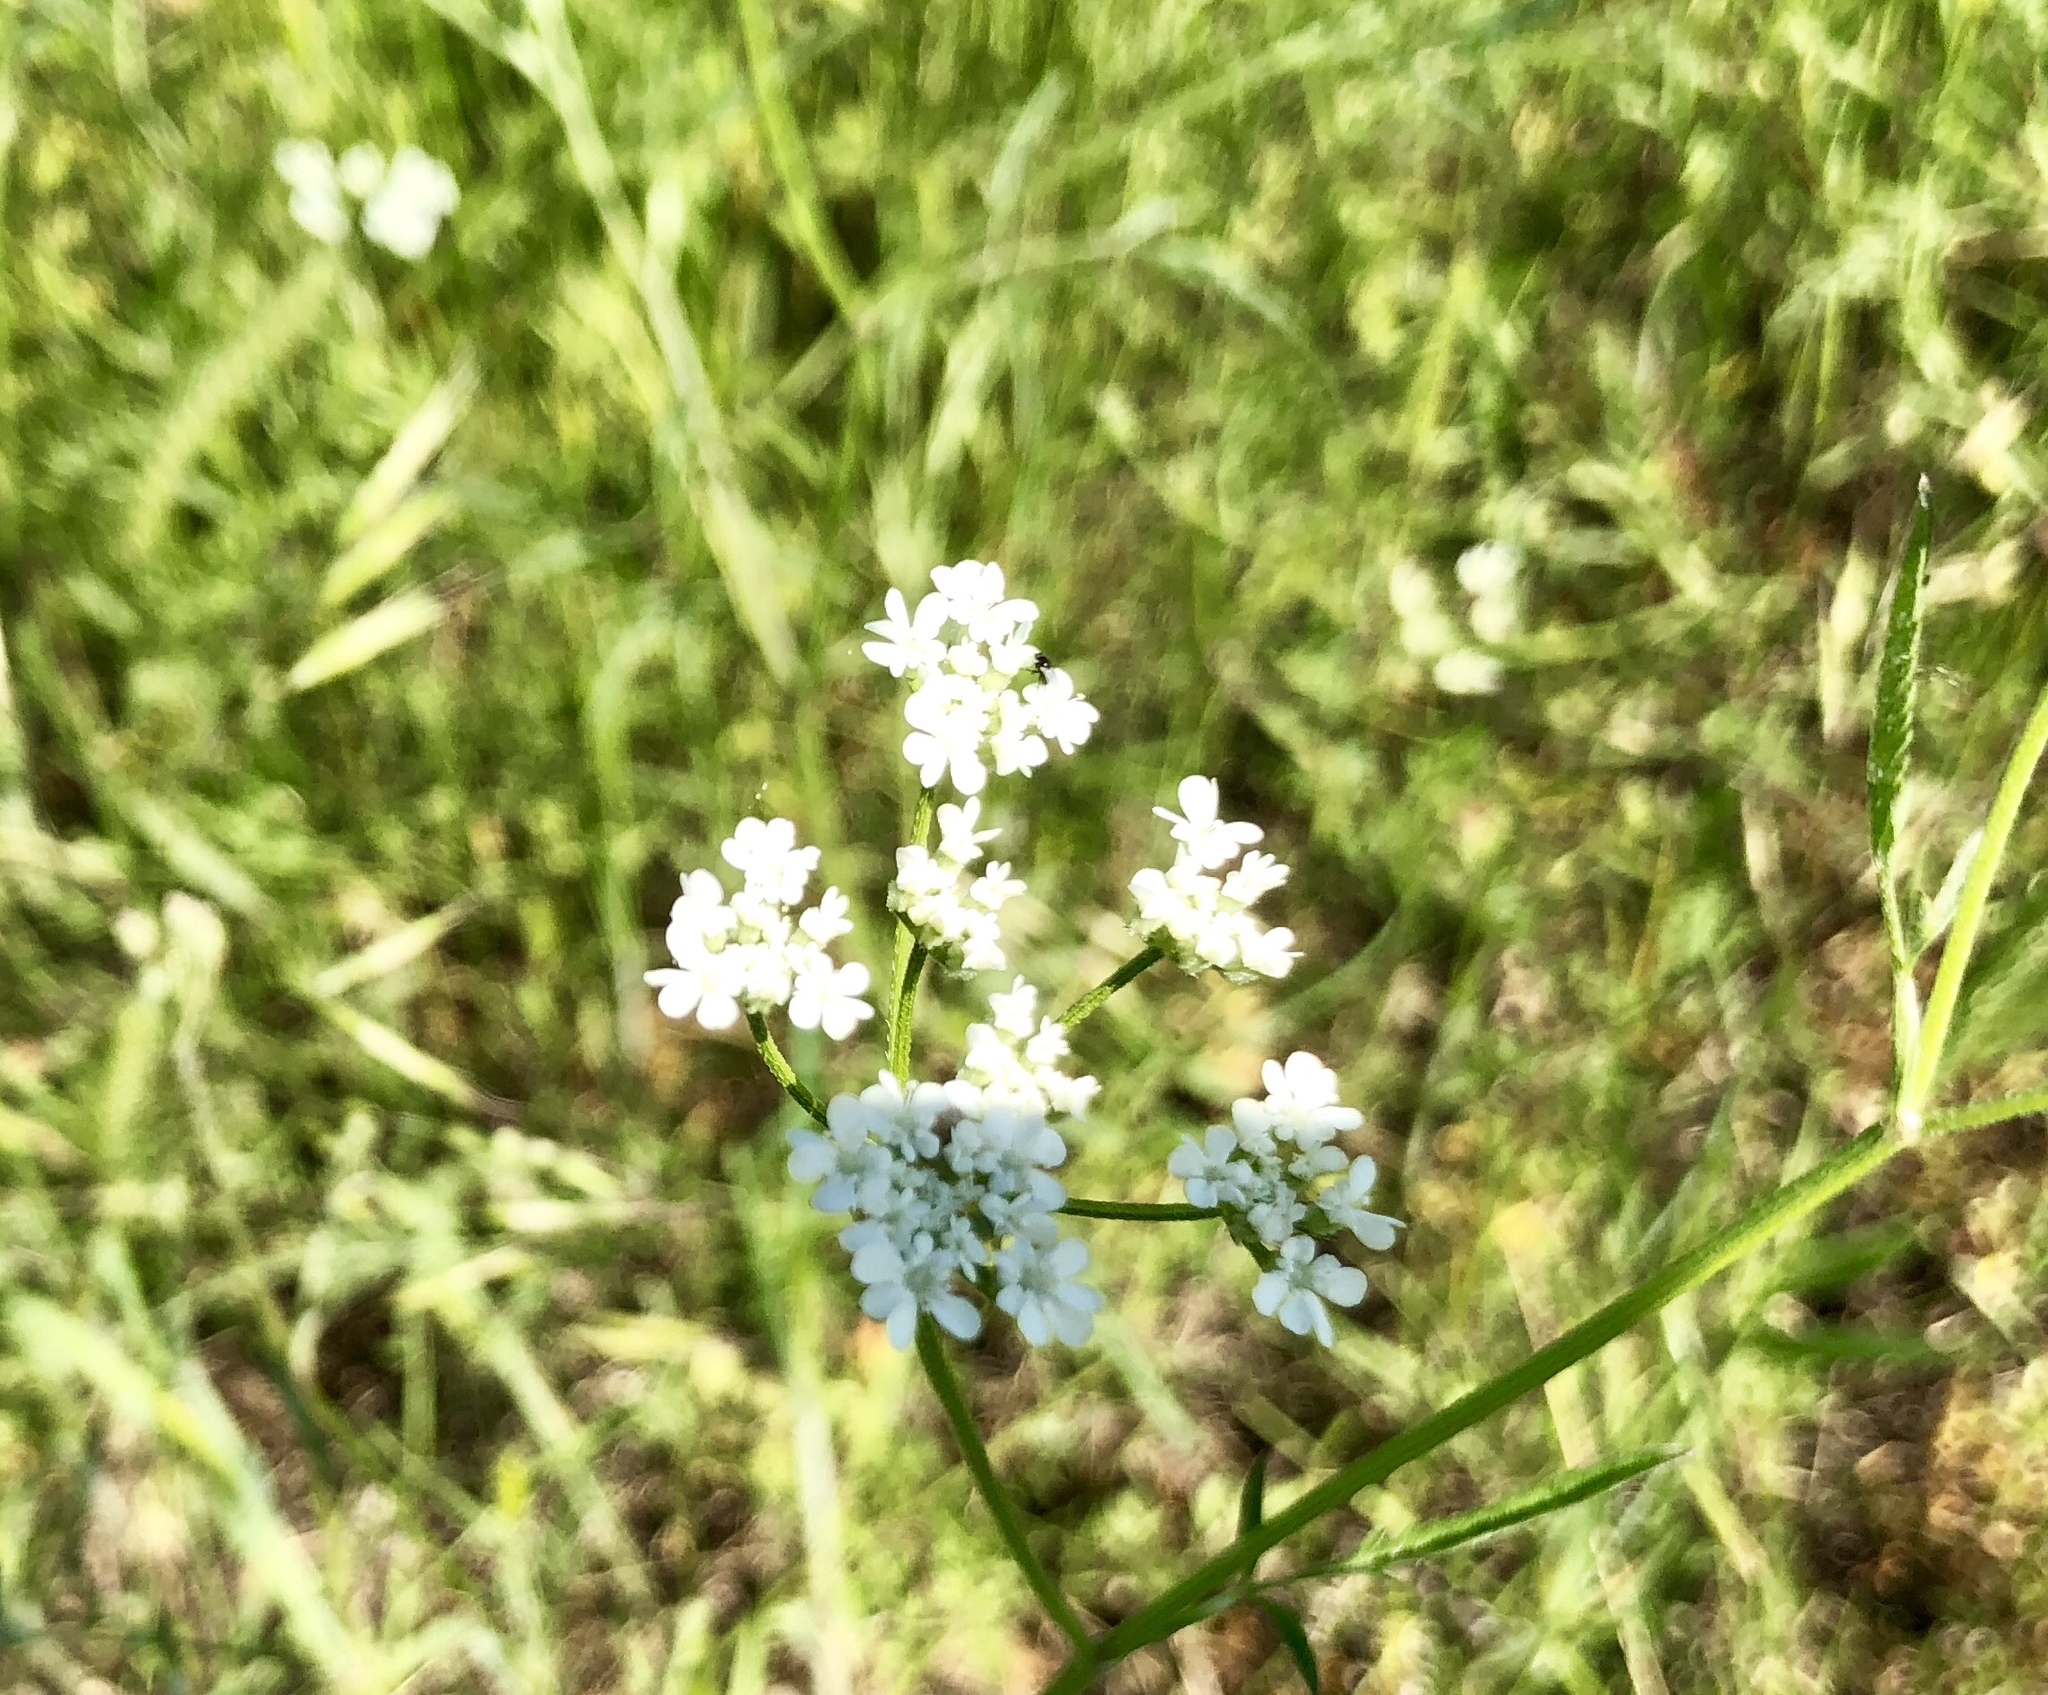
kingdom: Plantae
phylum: Tracheophyta
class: Magnoliopsida
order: Apiales
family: Apiaceae
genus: Torilis
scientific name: Torilis arvensis
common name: Spreading hedge-parsley
